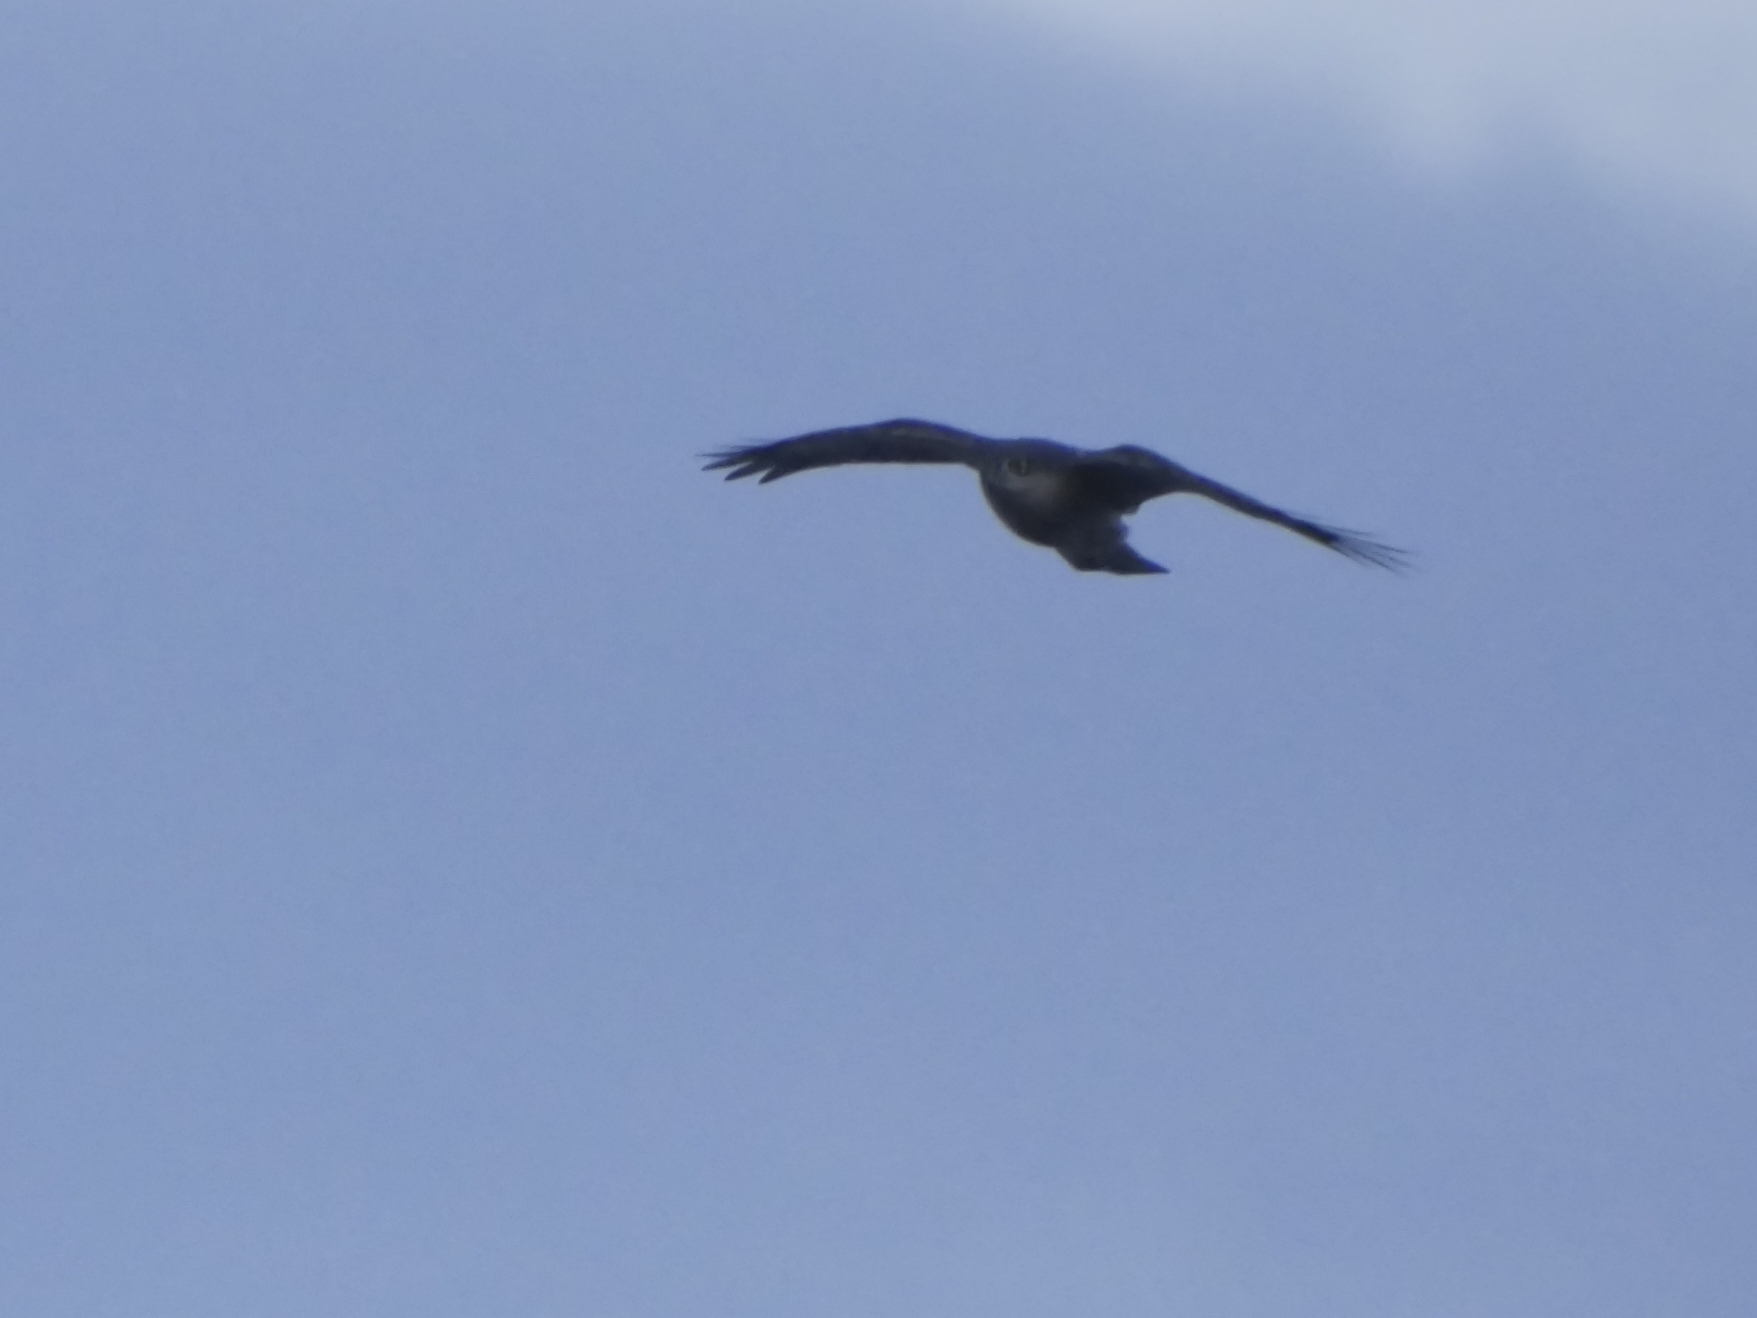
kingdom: Animalia
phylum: Chordata
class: Aves
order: Accipitriformes
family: Accipitridae
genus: Accipiter
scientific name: Accipiter nisus
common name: Eurasian sparrowhawk
